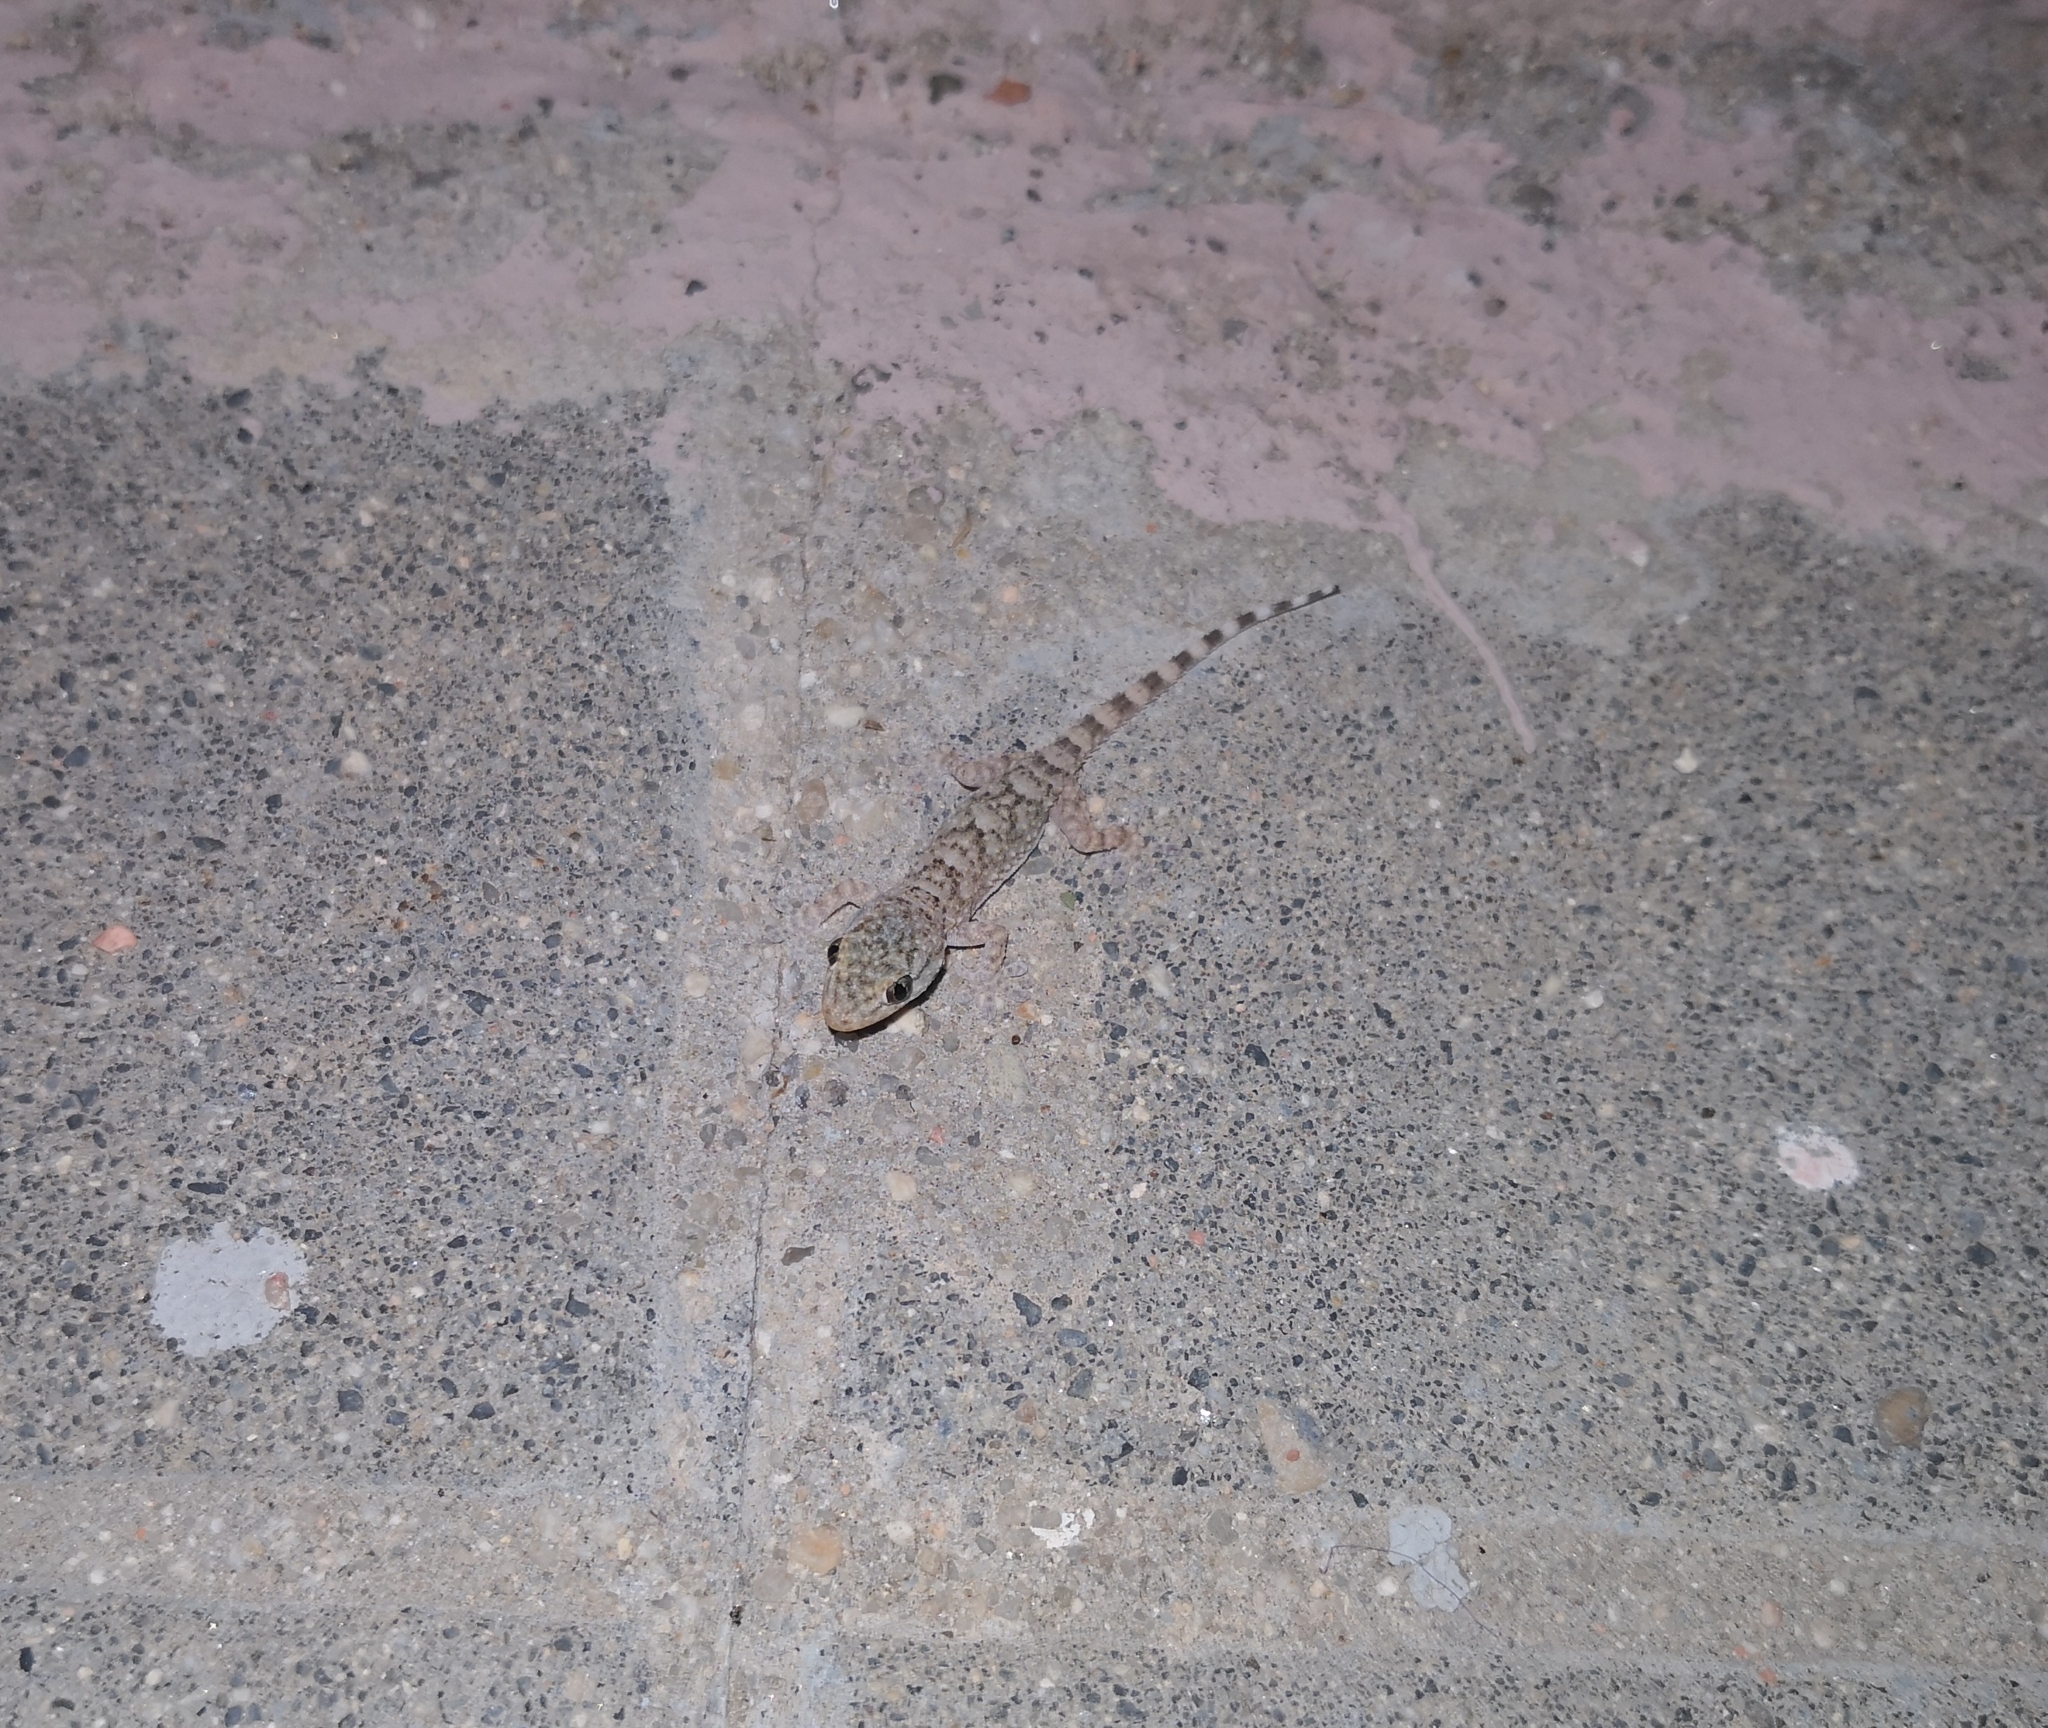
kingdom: Animalia
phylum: Chordata
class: Squamata
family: Phyllodactylidae
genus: Tarentola
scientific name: Tarentola mauritanica
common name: Moorish gecko
